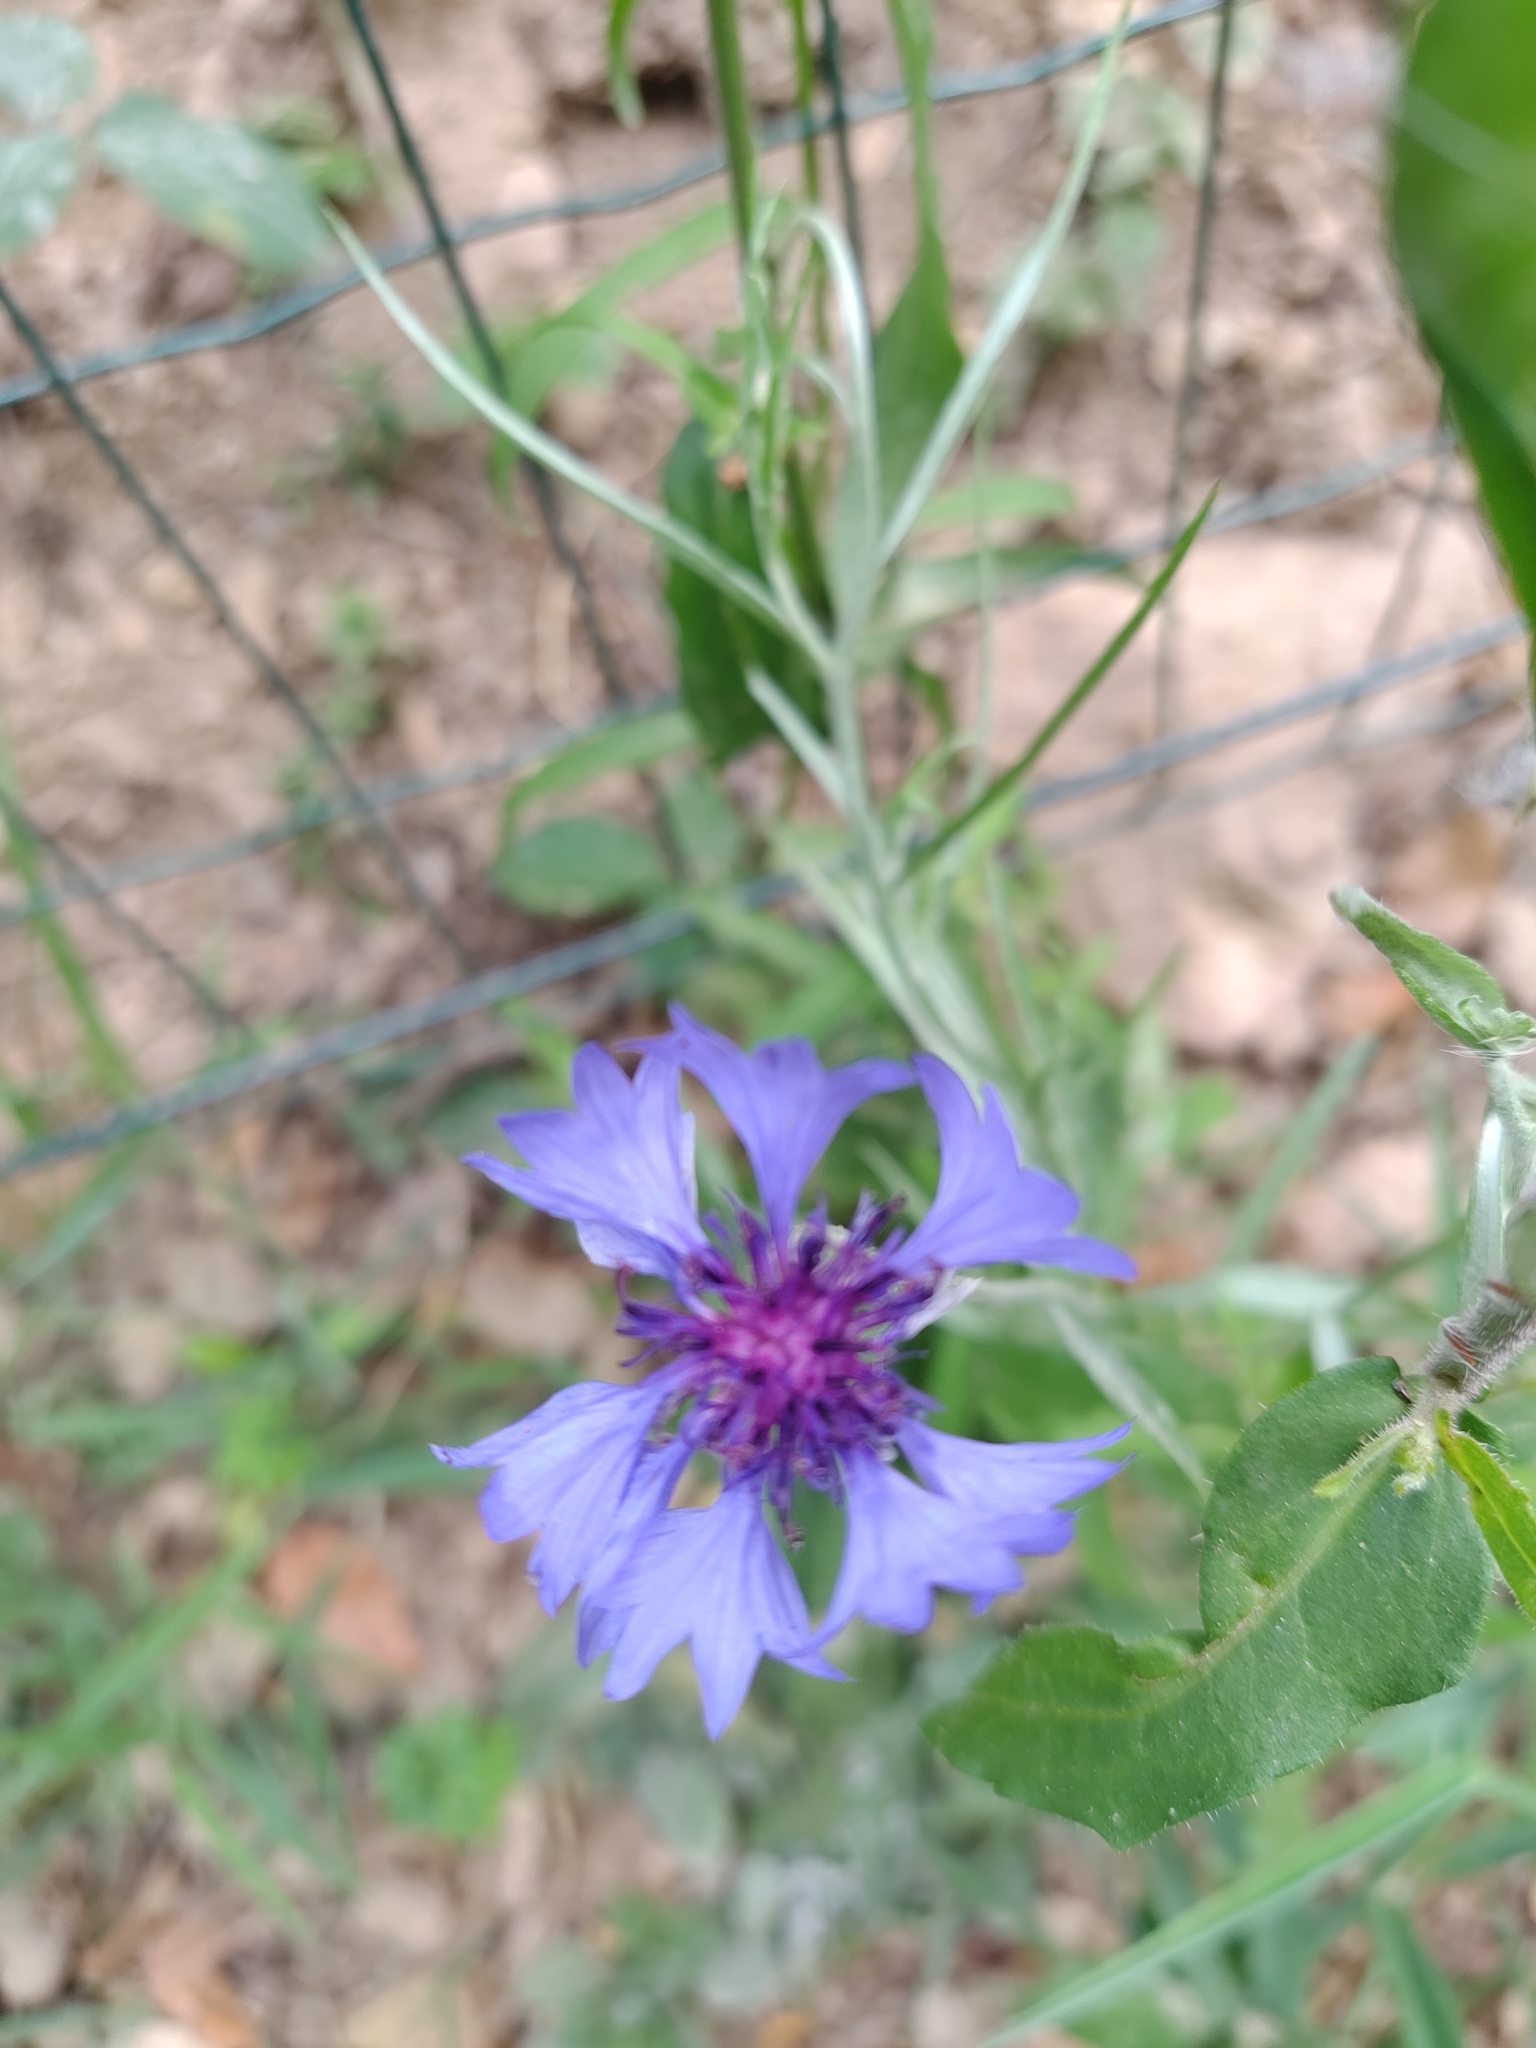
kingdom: Plantae
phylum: Tracheophyta
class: Magnoliopsida
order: Asterales
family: Asteraceae
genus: Centaurea
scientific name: Centaurea cyanus
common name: Cornflower
